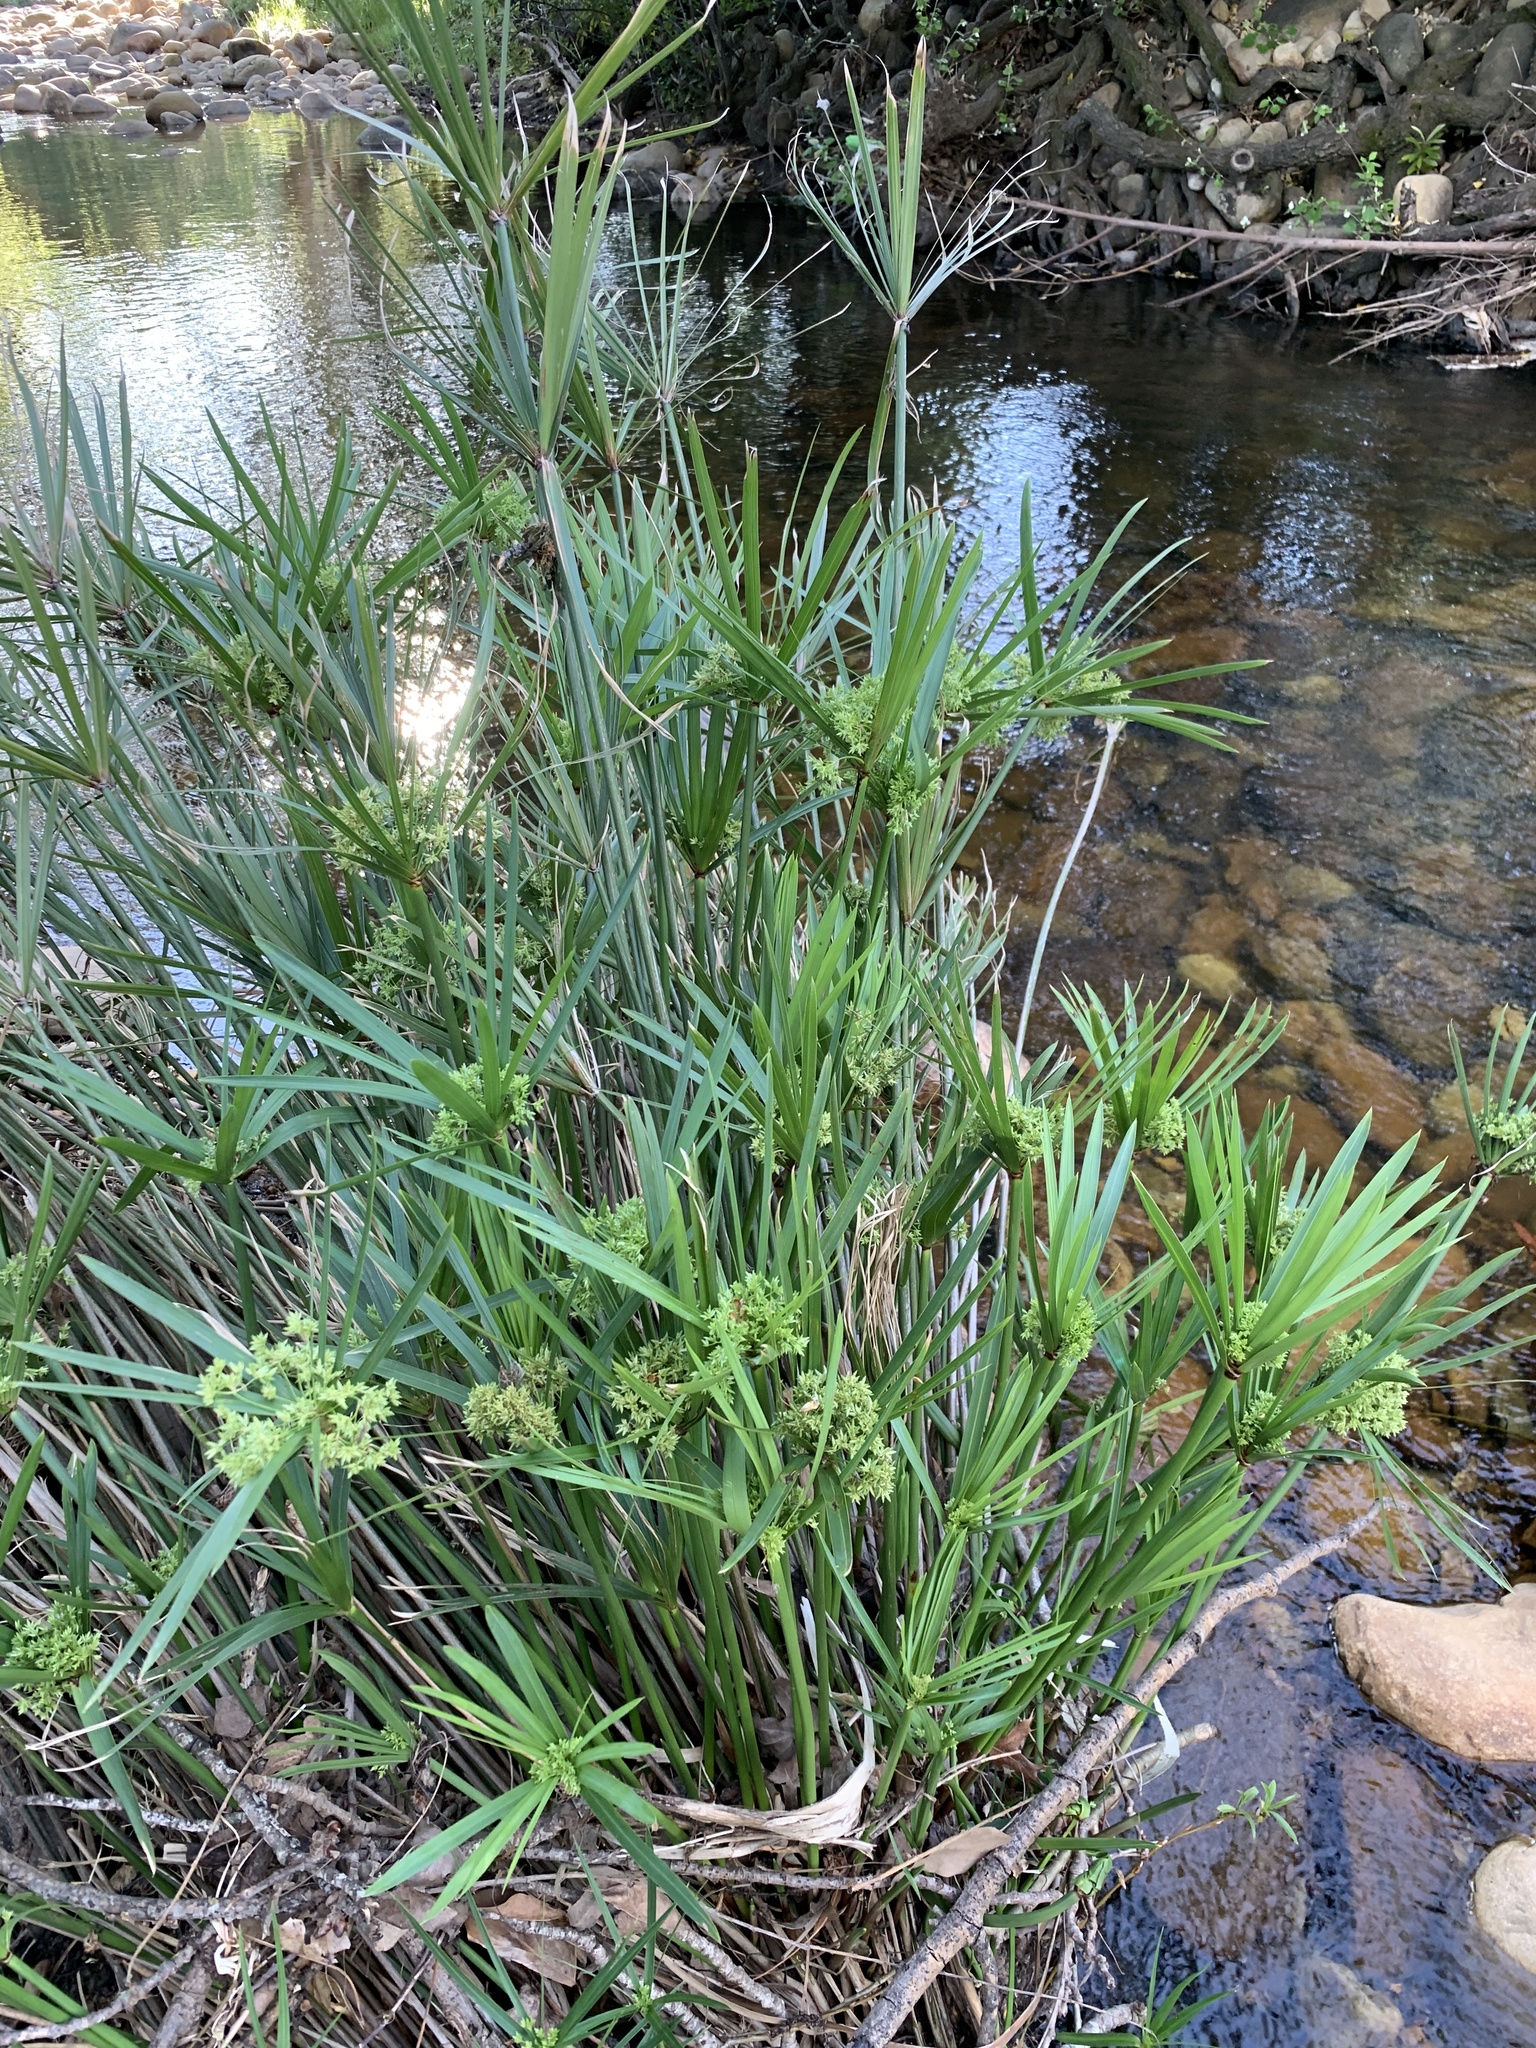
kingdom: Plantae
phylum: Tracheophyta
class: Liliopsida
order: Poales
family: Cyperaceae
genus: Cyperus
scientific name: Cyperus textilis
